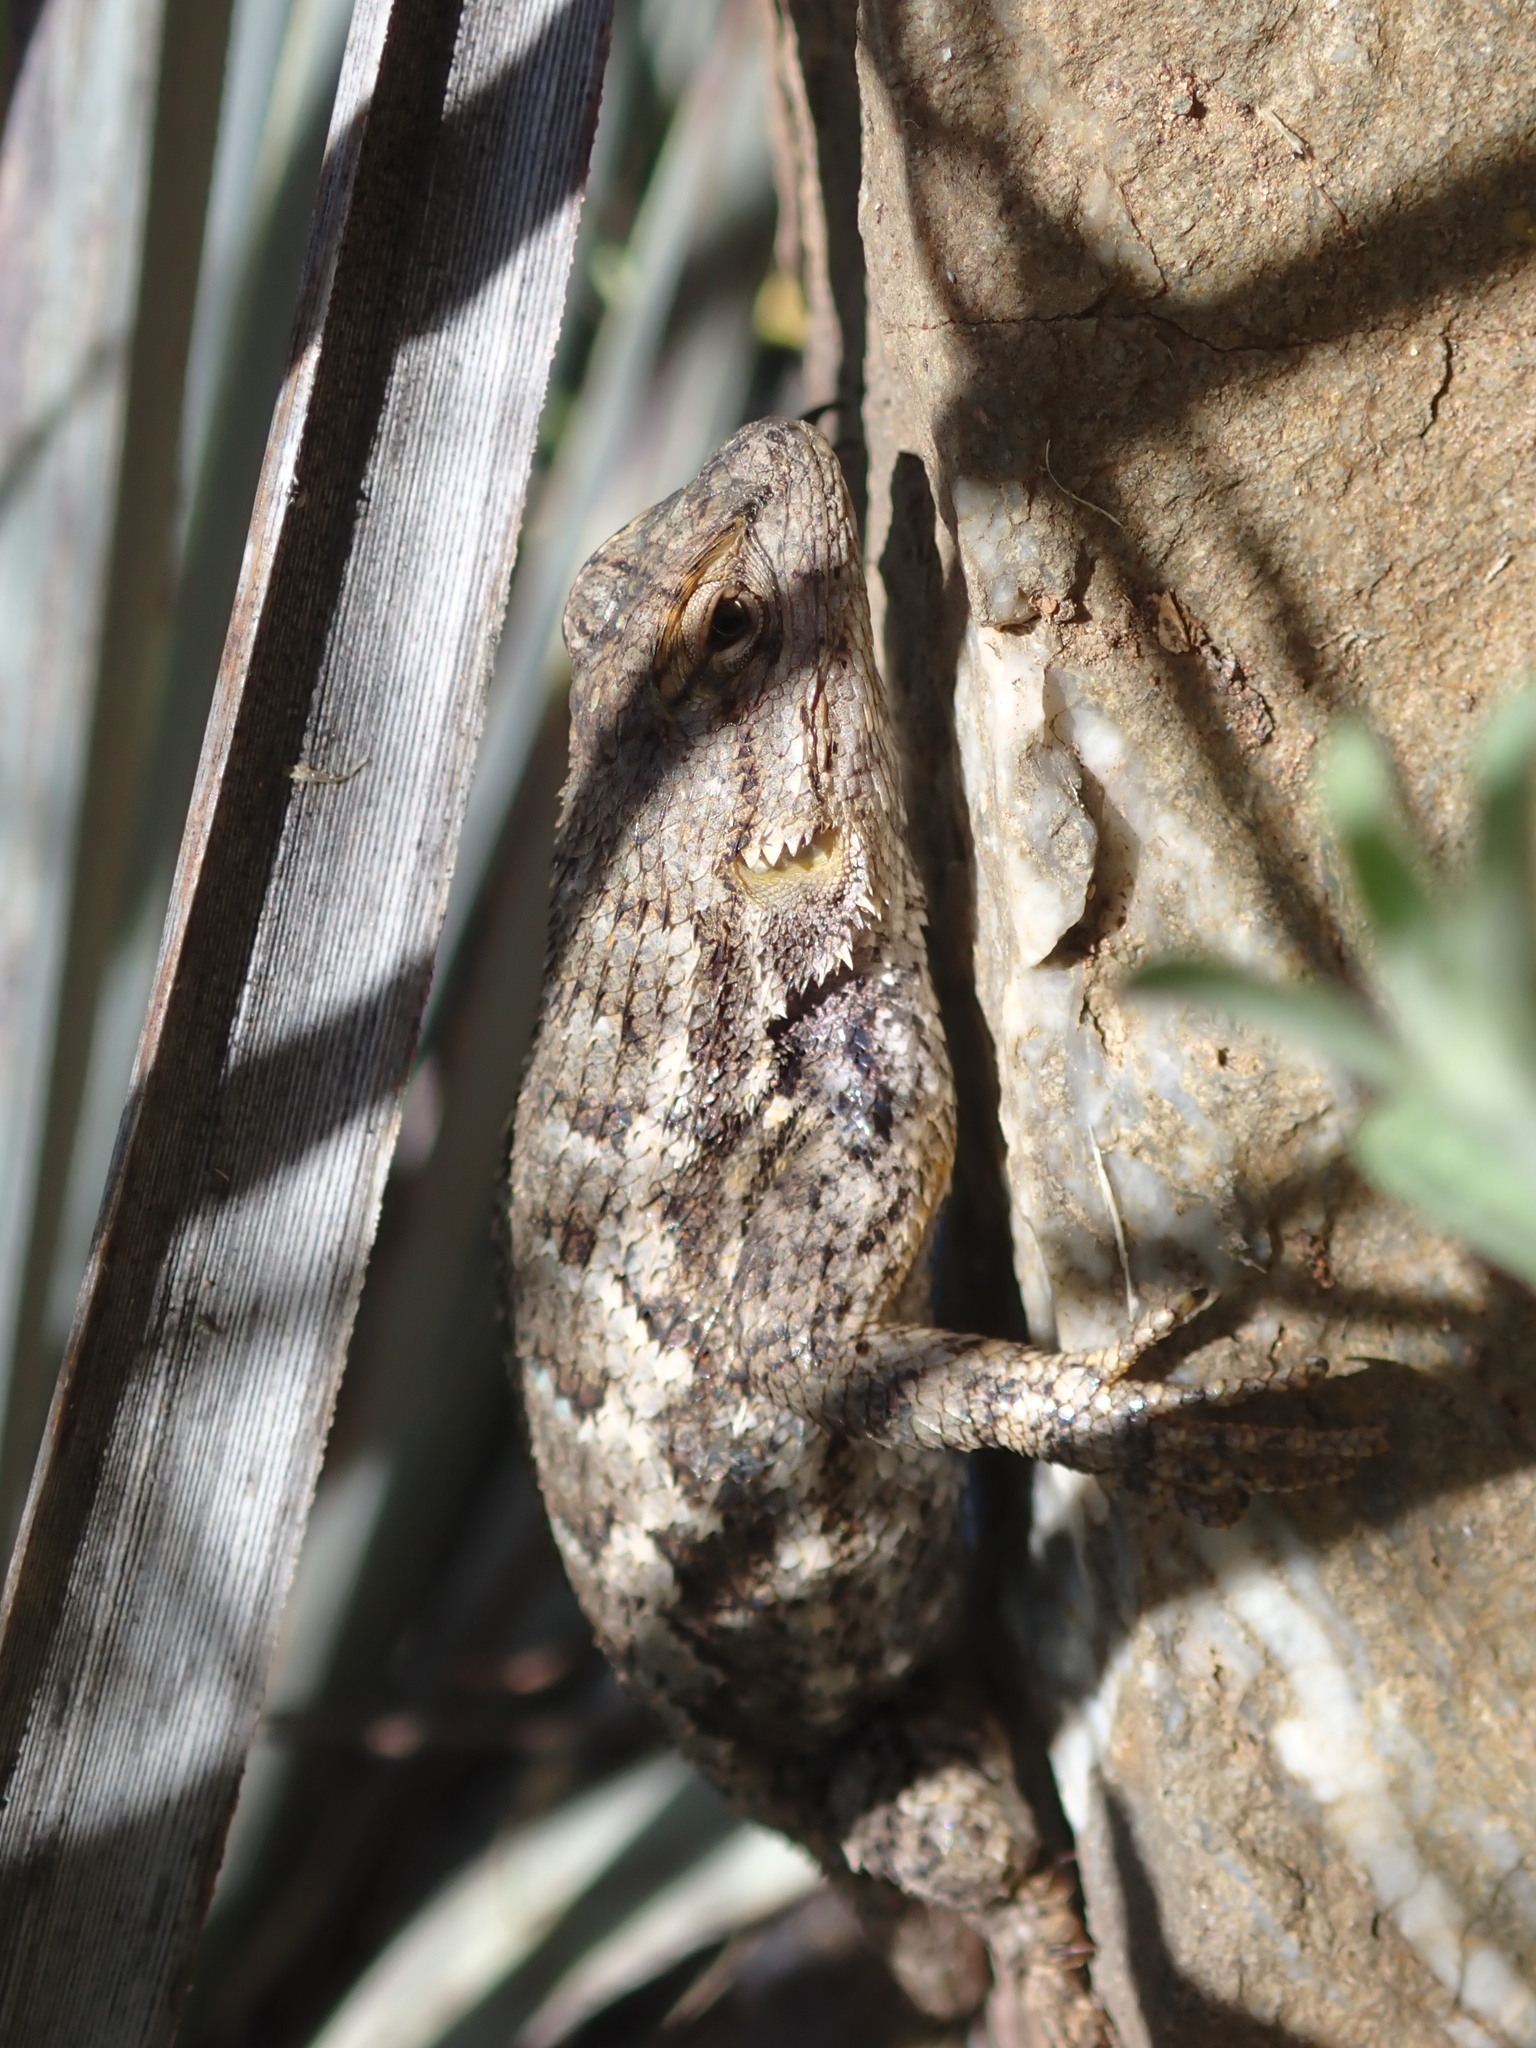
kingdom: Animalia
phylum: Chordata
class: Squamata
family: Phrynosomatidae
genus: Sceloporus
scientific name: Sceloporus occidentalis
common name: Western fence lizard
